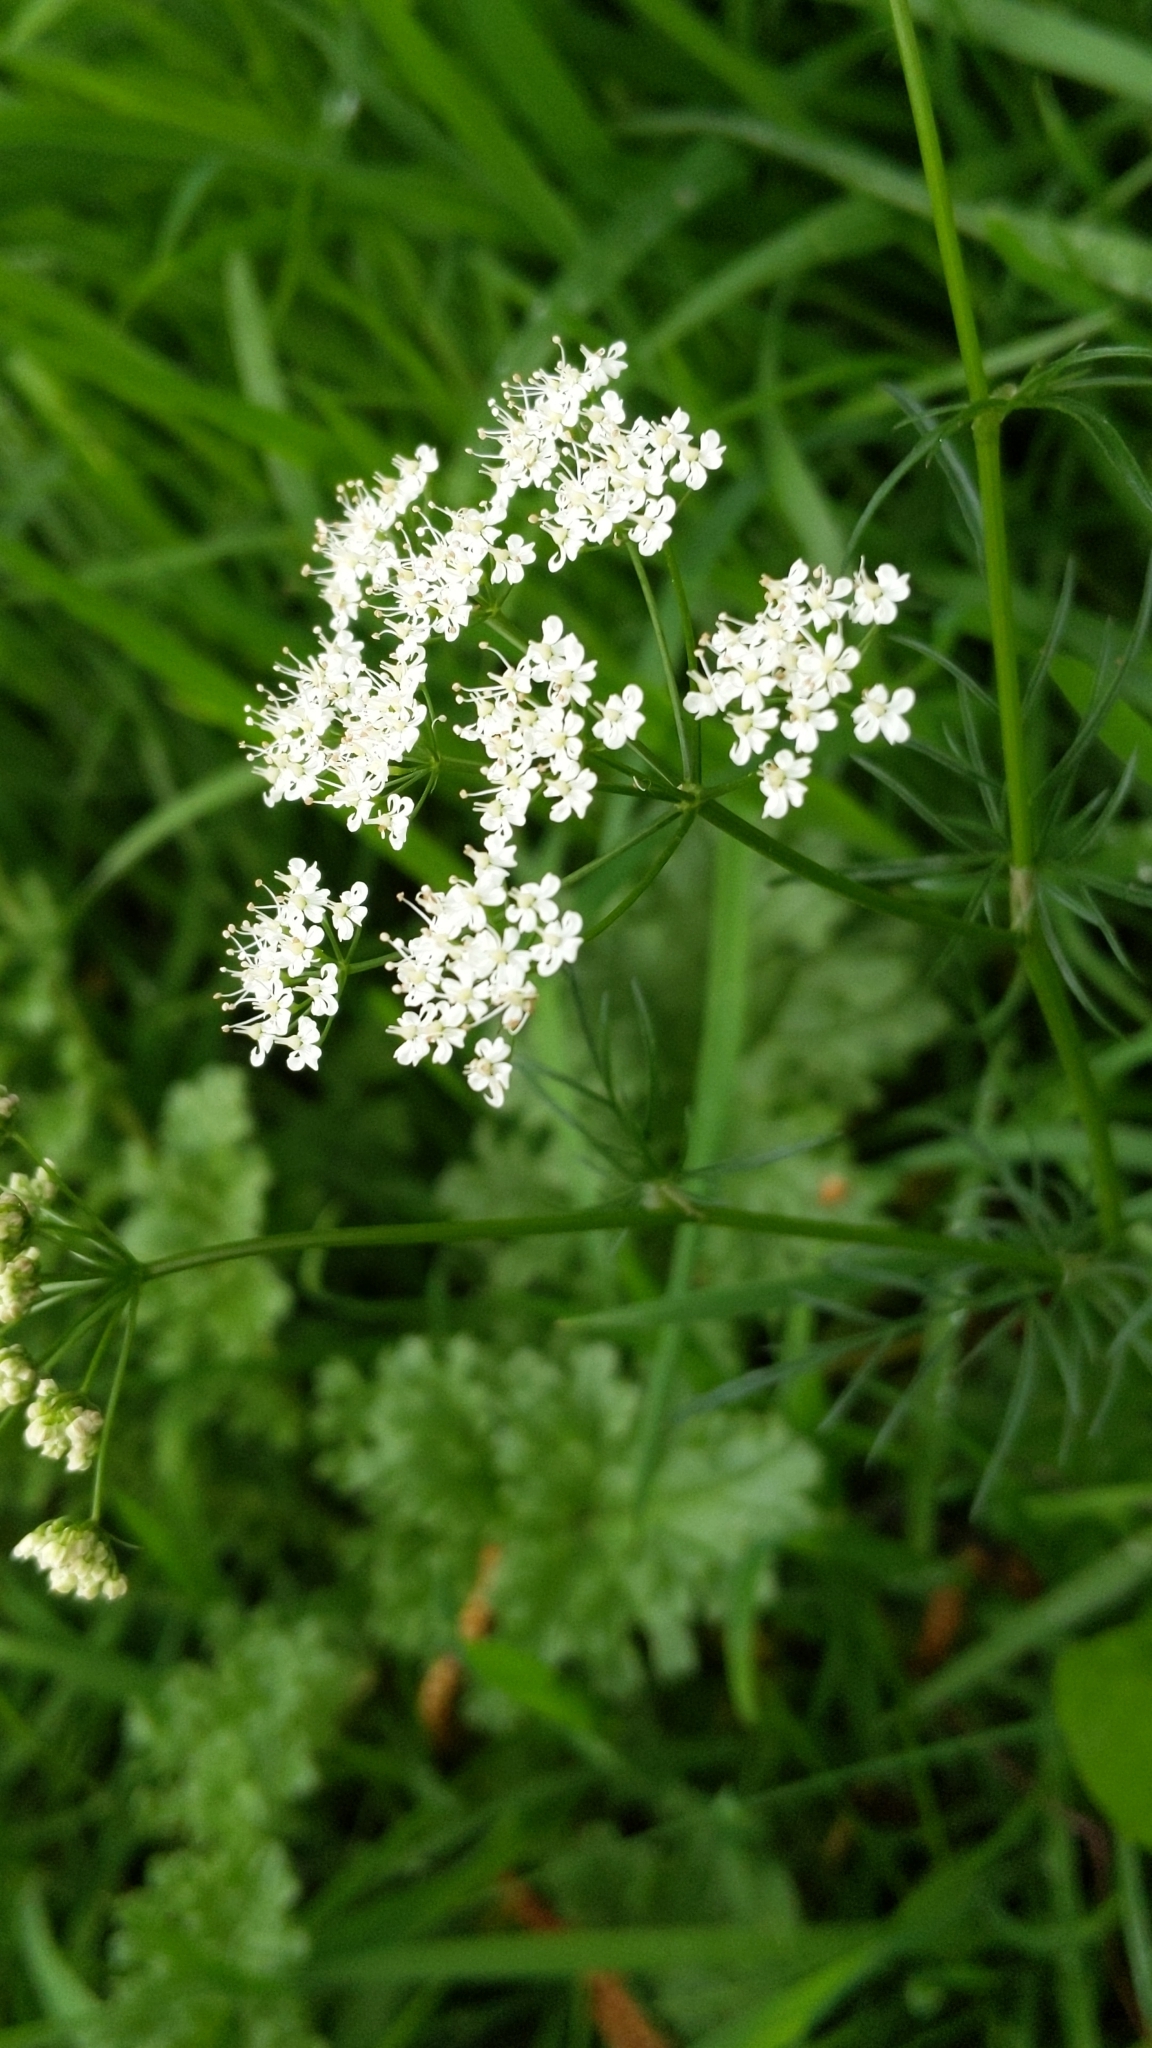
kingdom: Plantae
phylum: Tracheophyta
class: Magnoliopsida
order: Apiales
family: Apiaceae
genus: Conopodium
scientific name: Conopodium majus
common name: Pignut
